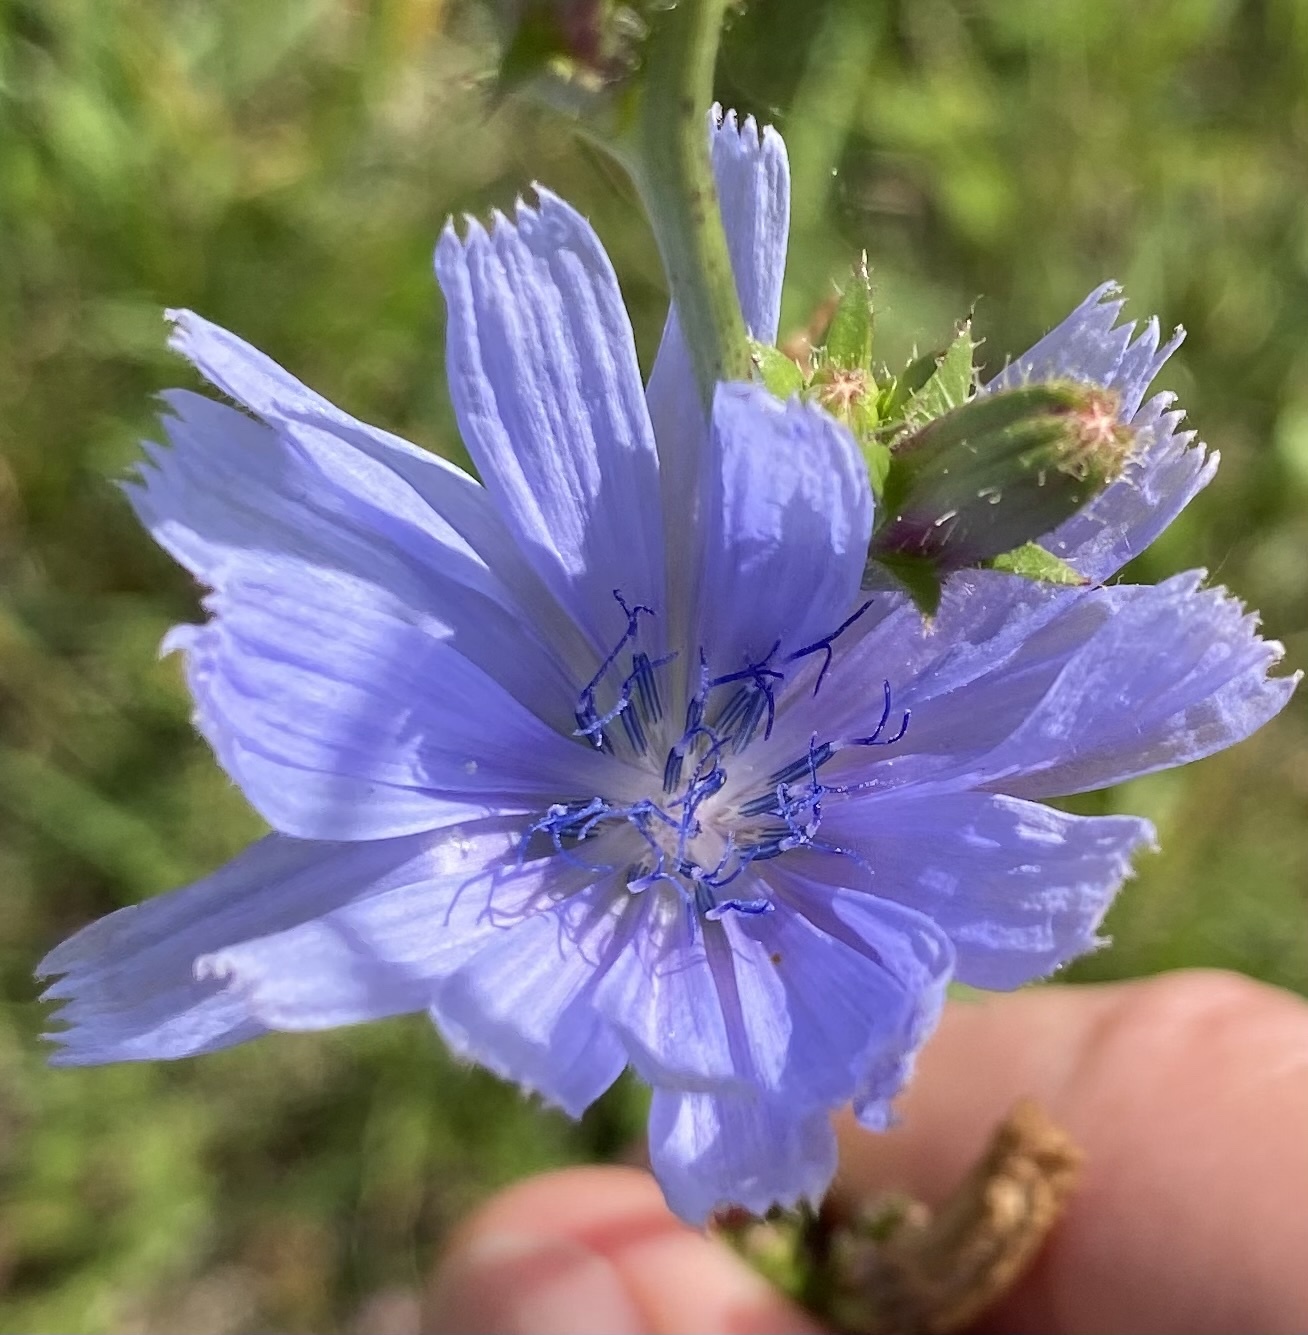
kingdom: Plantae
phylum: Tracheophyta
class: Magnoliopsida
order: Asterales
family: Asteraceae
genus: Cichorium
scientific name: Cichorium intybus
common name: Chicory
